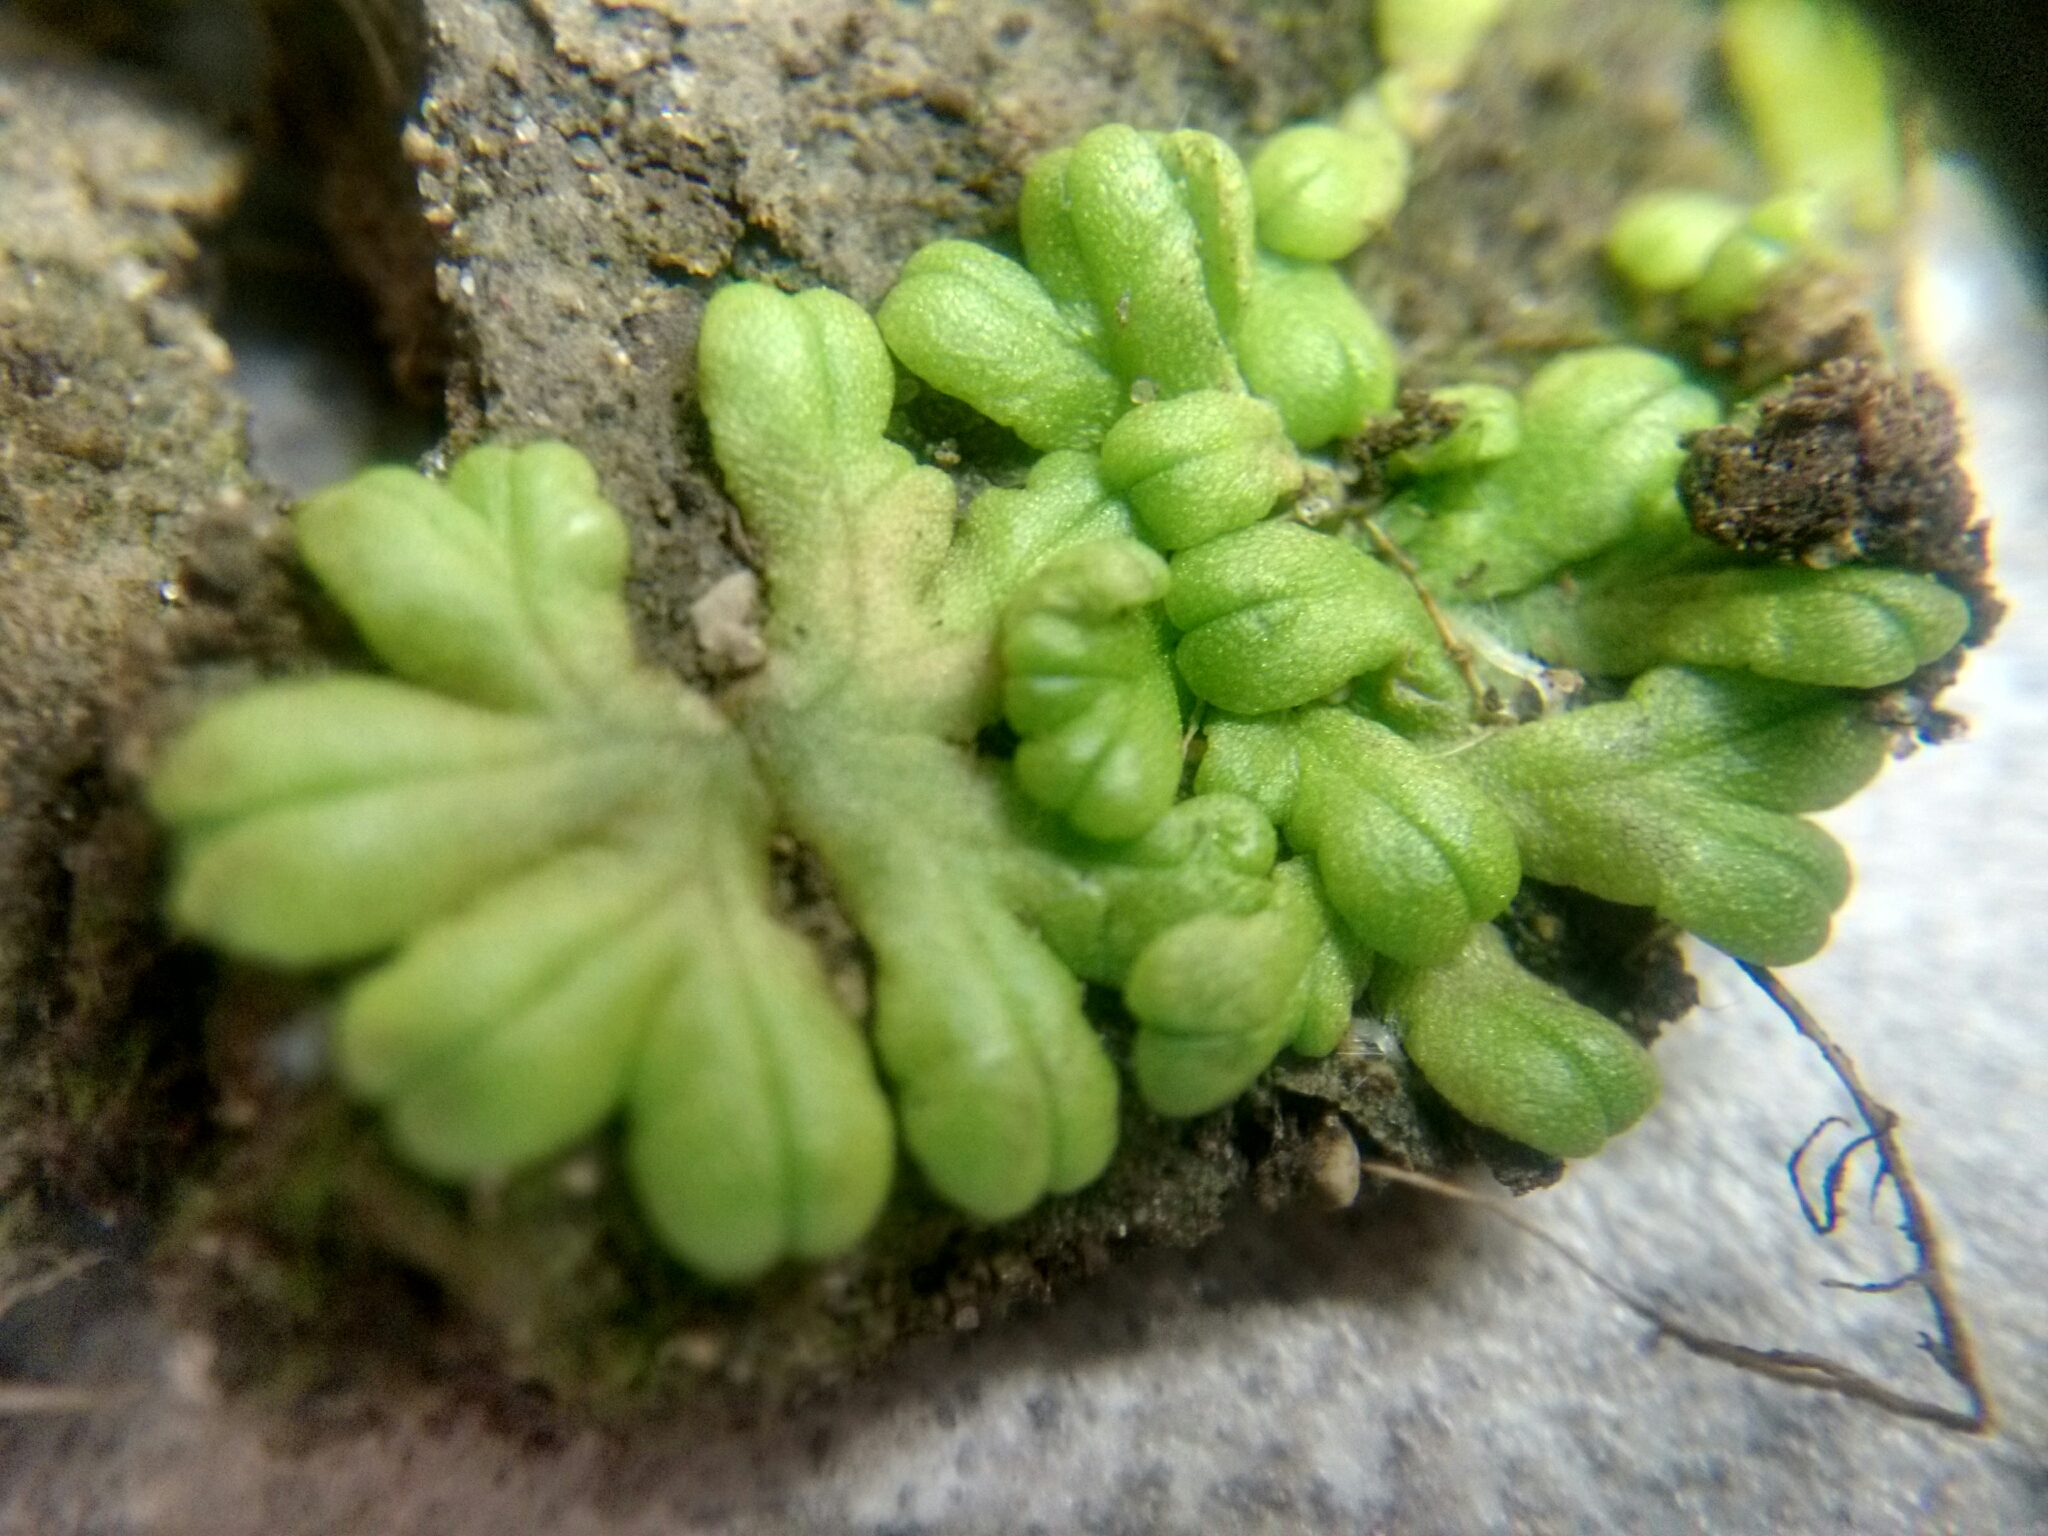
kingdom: Plantae
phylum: Marchantiophyta
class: Marchantiopsida
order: Marchantiales
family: Ricciaceae
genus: Ricciocarpos
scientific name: Ricciocarpos natans
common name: Purple-fringed liverwort
